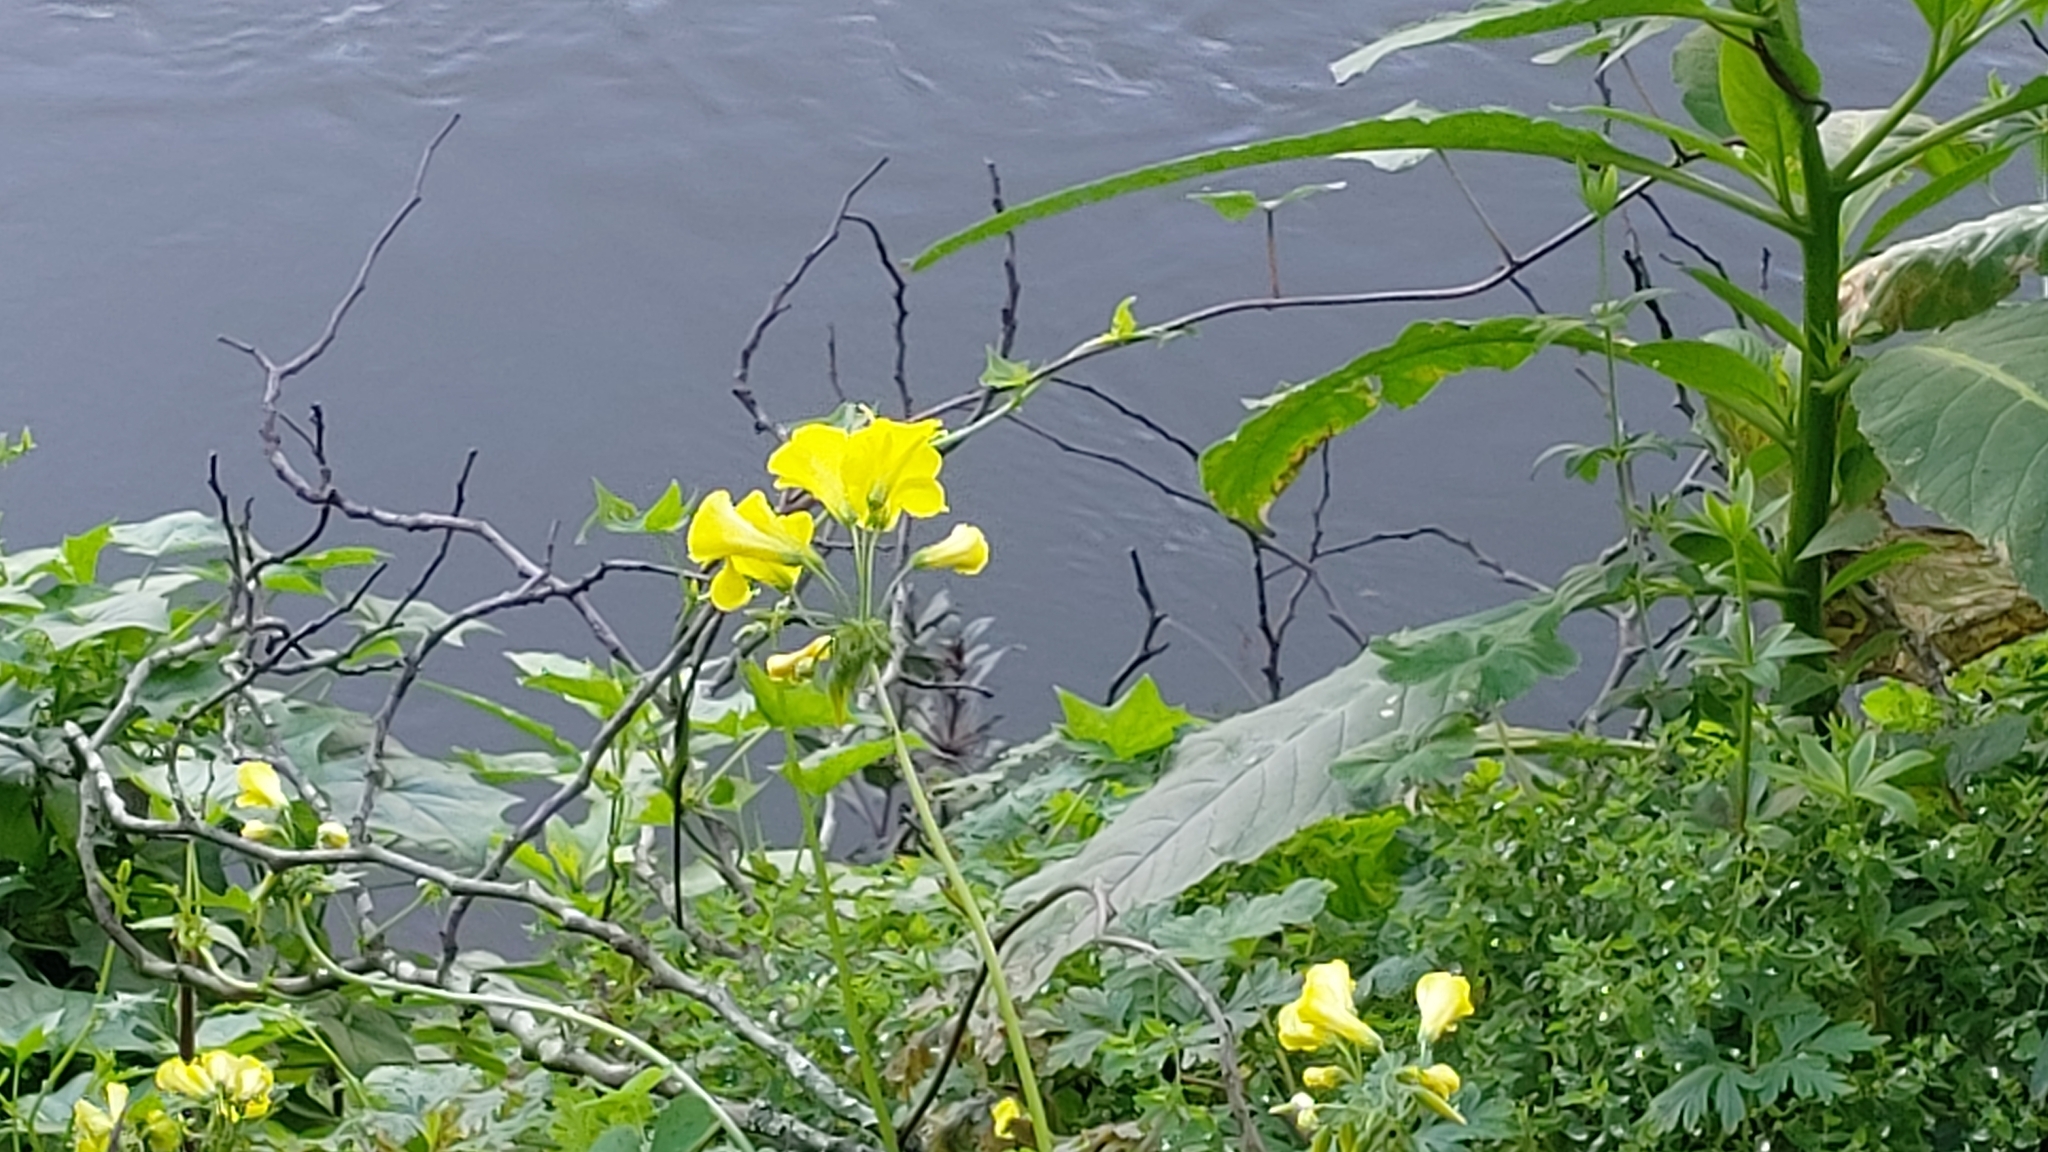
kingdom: Plantae
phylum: Tracheophyta
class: Magnoliopsida
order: Oxalidales
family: Oxalidaceae
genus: Oxalis
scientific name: Oxalis pes-caprae
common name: Bermuda-buttercup
